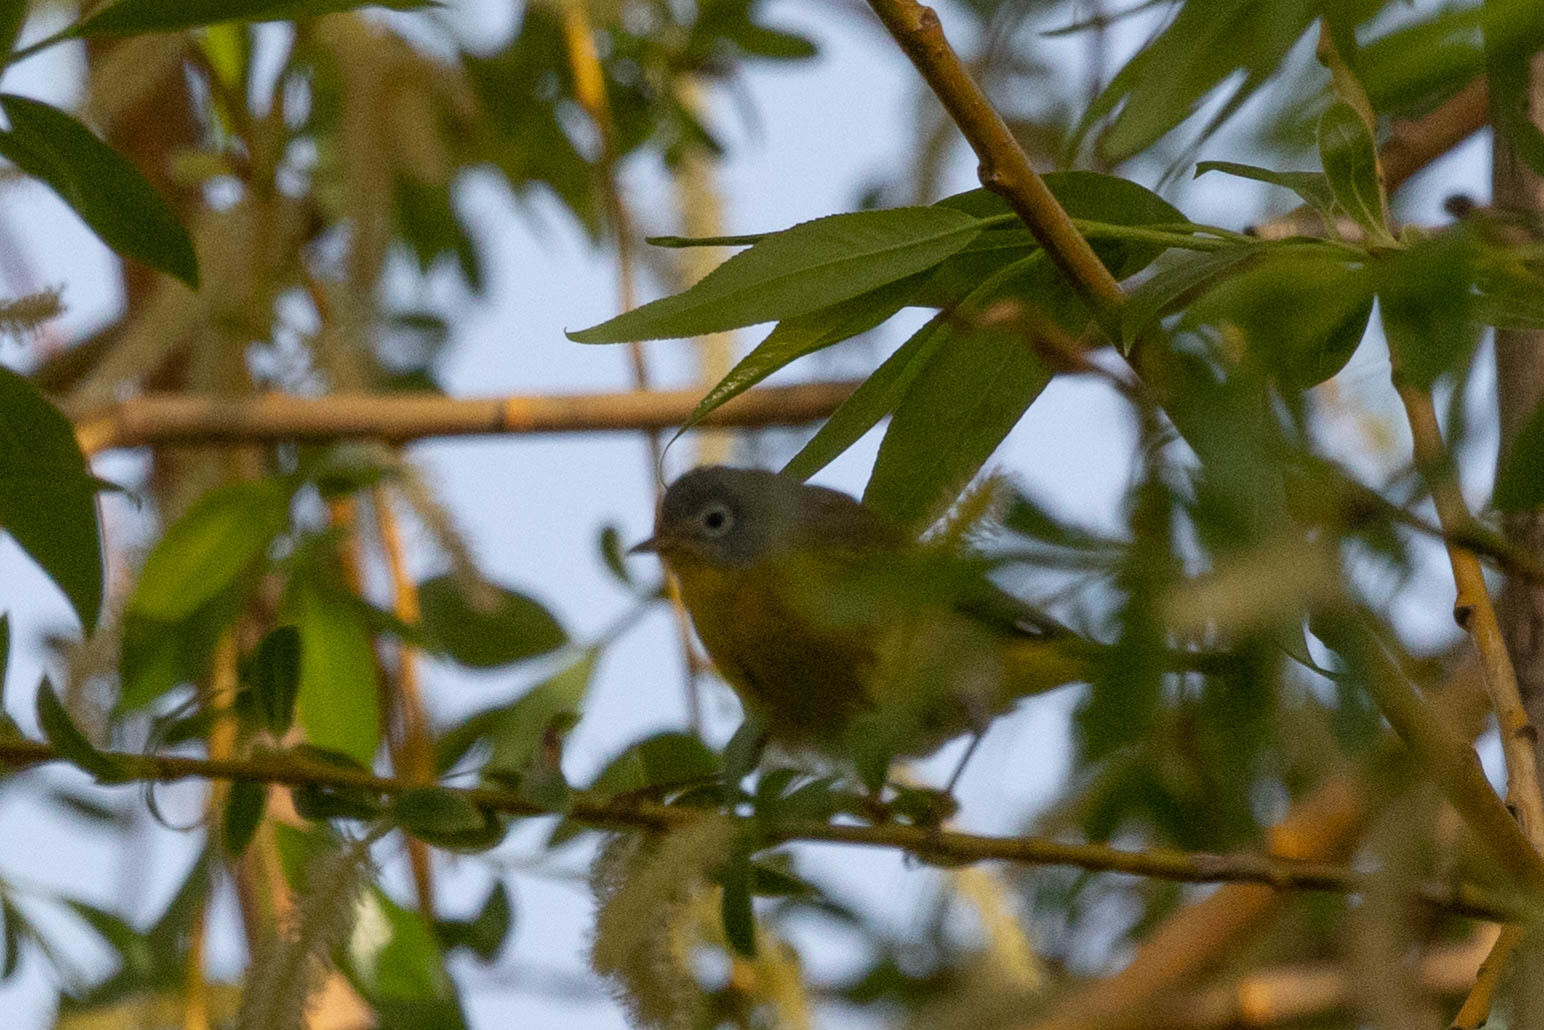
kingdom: Animalia
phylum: Chordata
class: Aves
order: Passeriformes
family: Parulidae
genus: Leiothlypis
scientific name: Leiothlypis ruficapilla
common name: Nashville warbler
